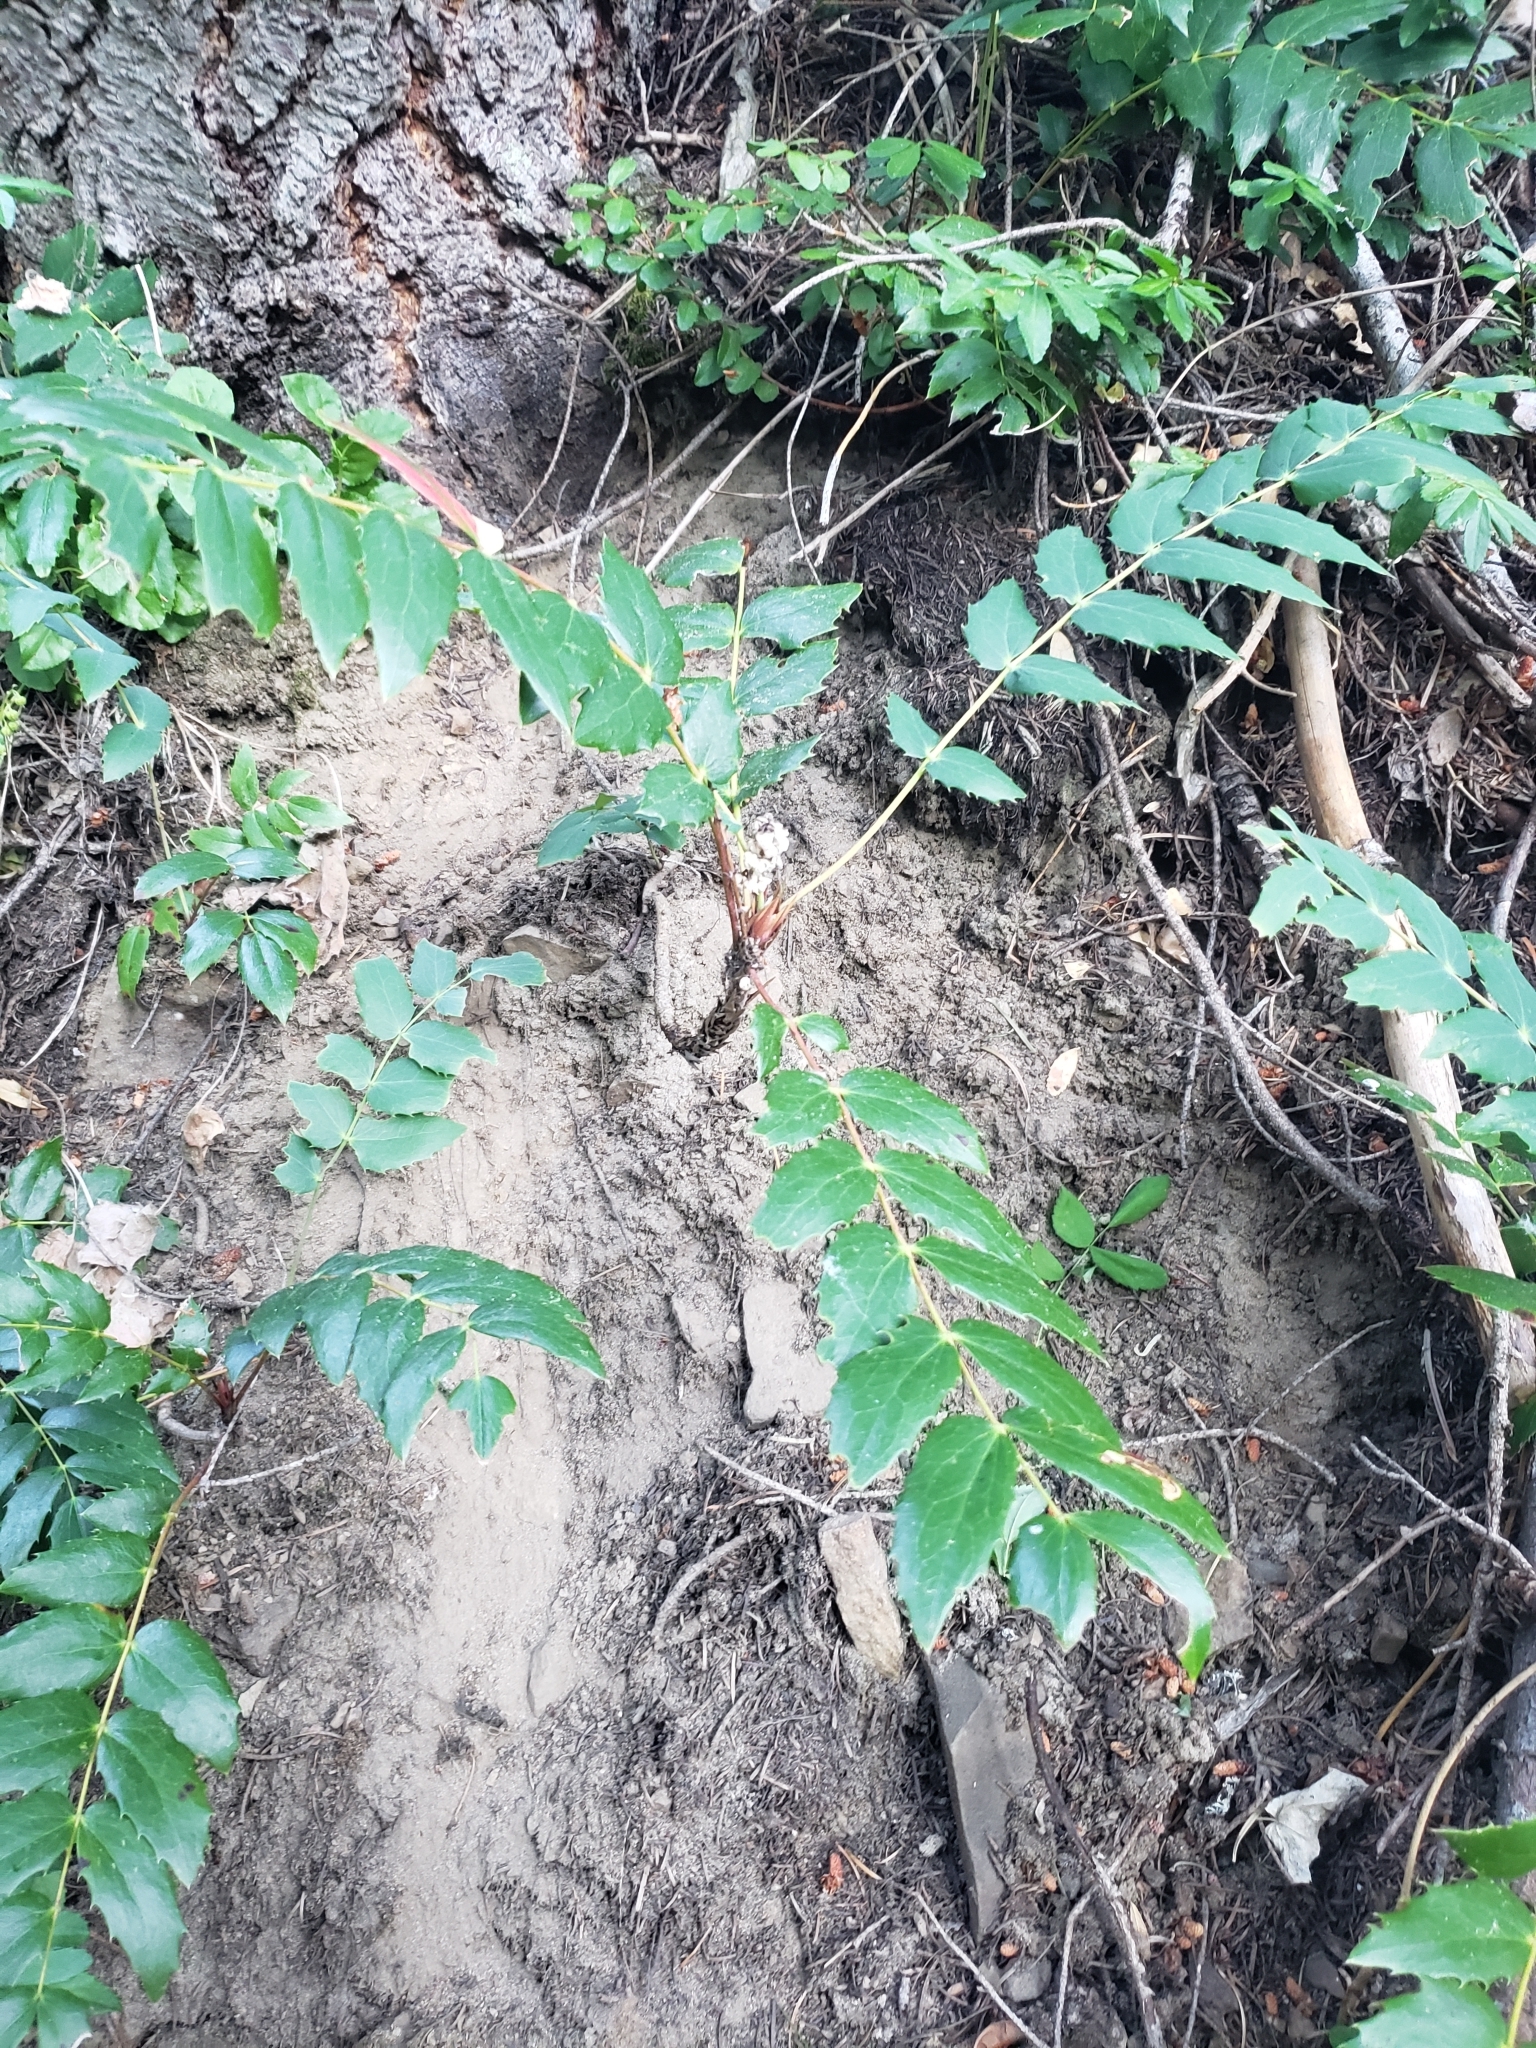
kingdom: Plantae
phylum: Tracheophyta
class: Magnoliopsida
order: Ranunculales
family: Berberidaceae
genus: Mahonia
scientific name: Mahonia nervosa
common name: Cascade oregon-grape
